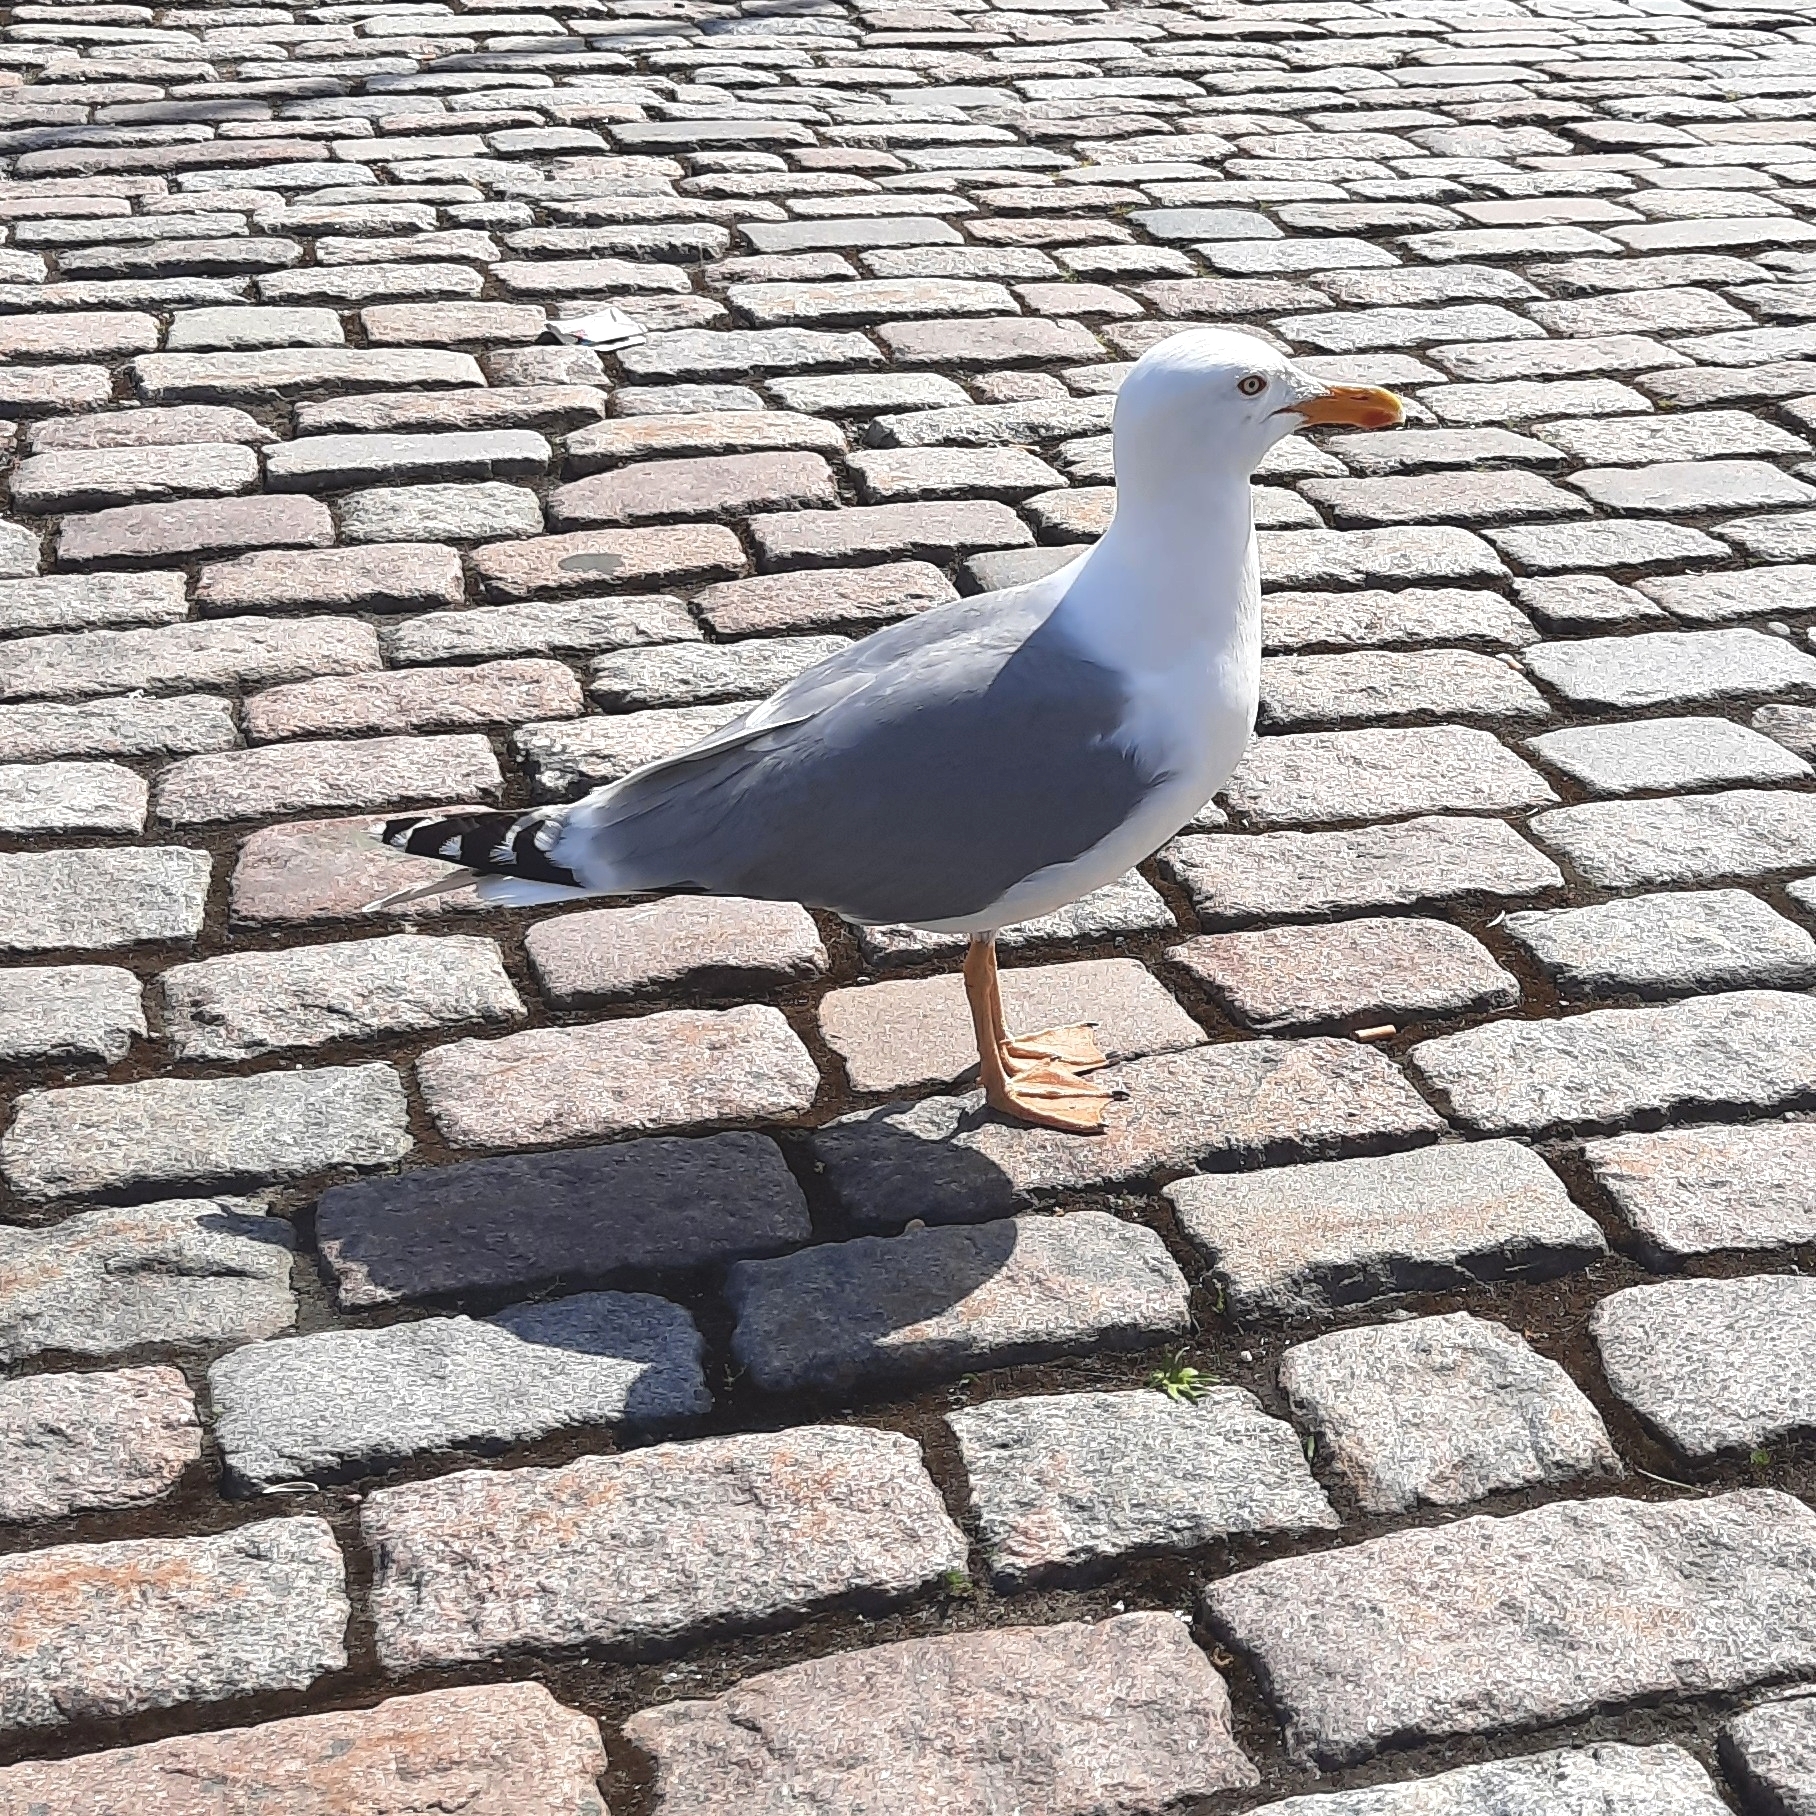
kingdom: Animalia
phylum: Chordata
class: Aves
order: Charadriiformes
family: Laridae
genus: Larus
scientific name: Larus argentatus
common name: Herring gull
